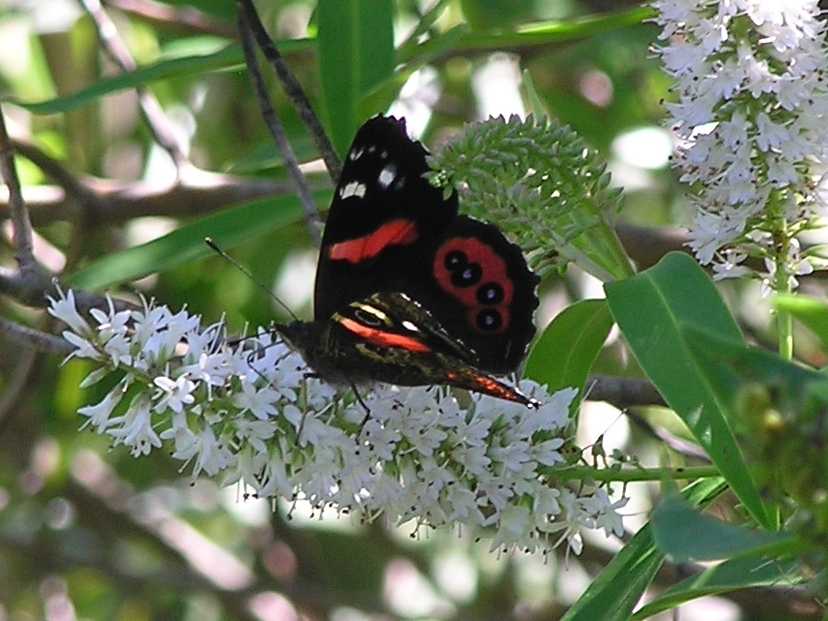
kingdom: Animalia
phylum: Arthropoda
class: Insecta
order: Lepidoptera
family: Nymphalidae
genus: Vanessa
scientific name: Vanessa gonerilla
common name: New zealand red admiral
